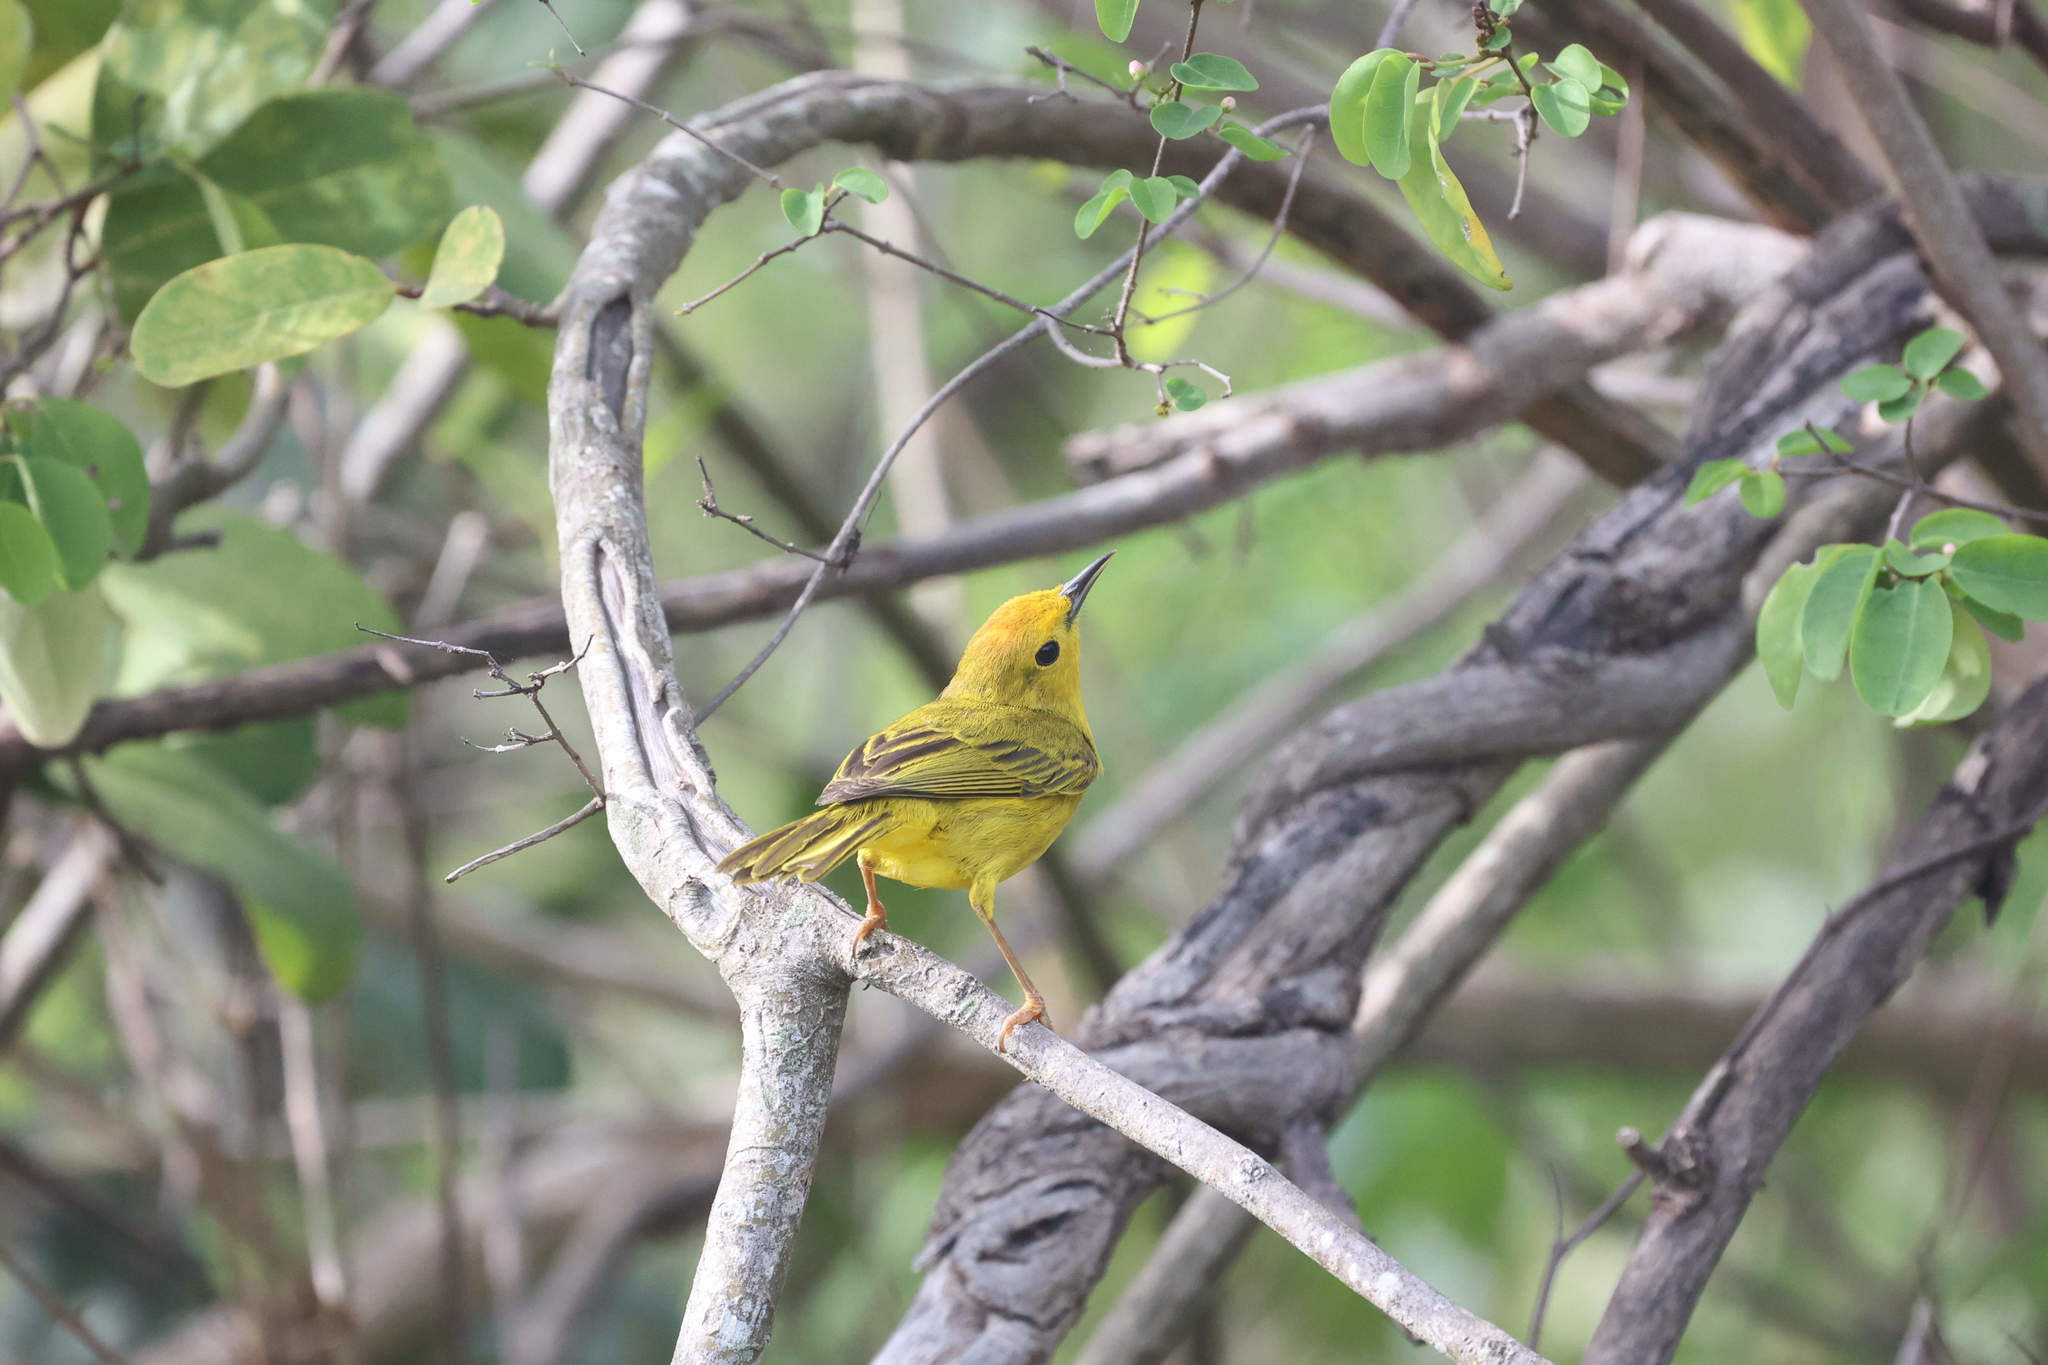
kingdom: Animalia
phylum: Chordata
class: Aves
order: Passeriformes
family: Parulidae
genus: Setophaga
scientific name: Setophaga petechia
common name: Yellow warbler
